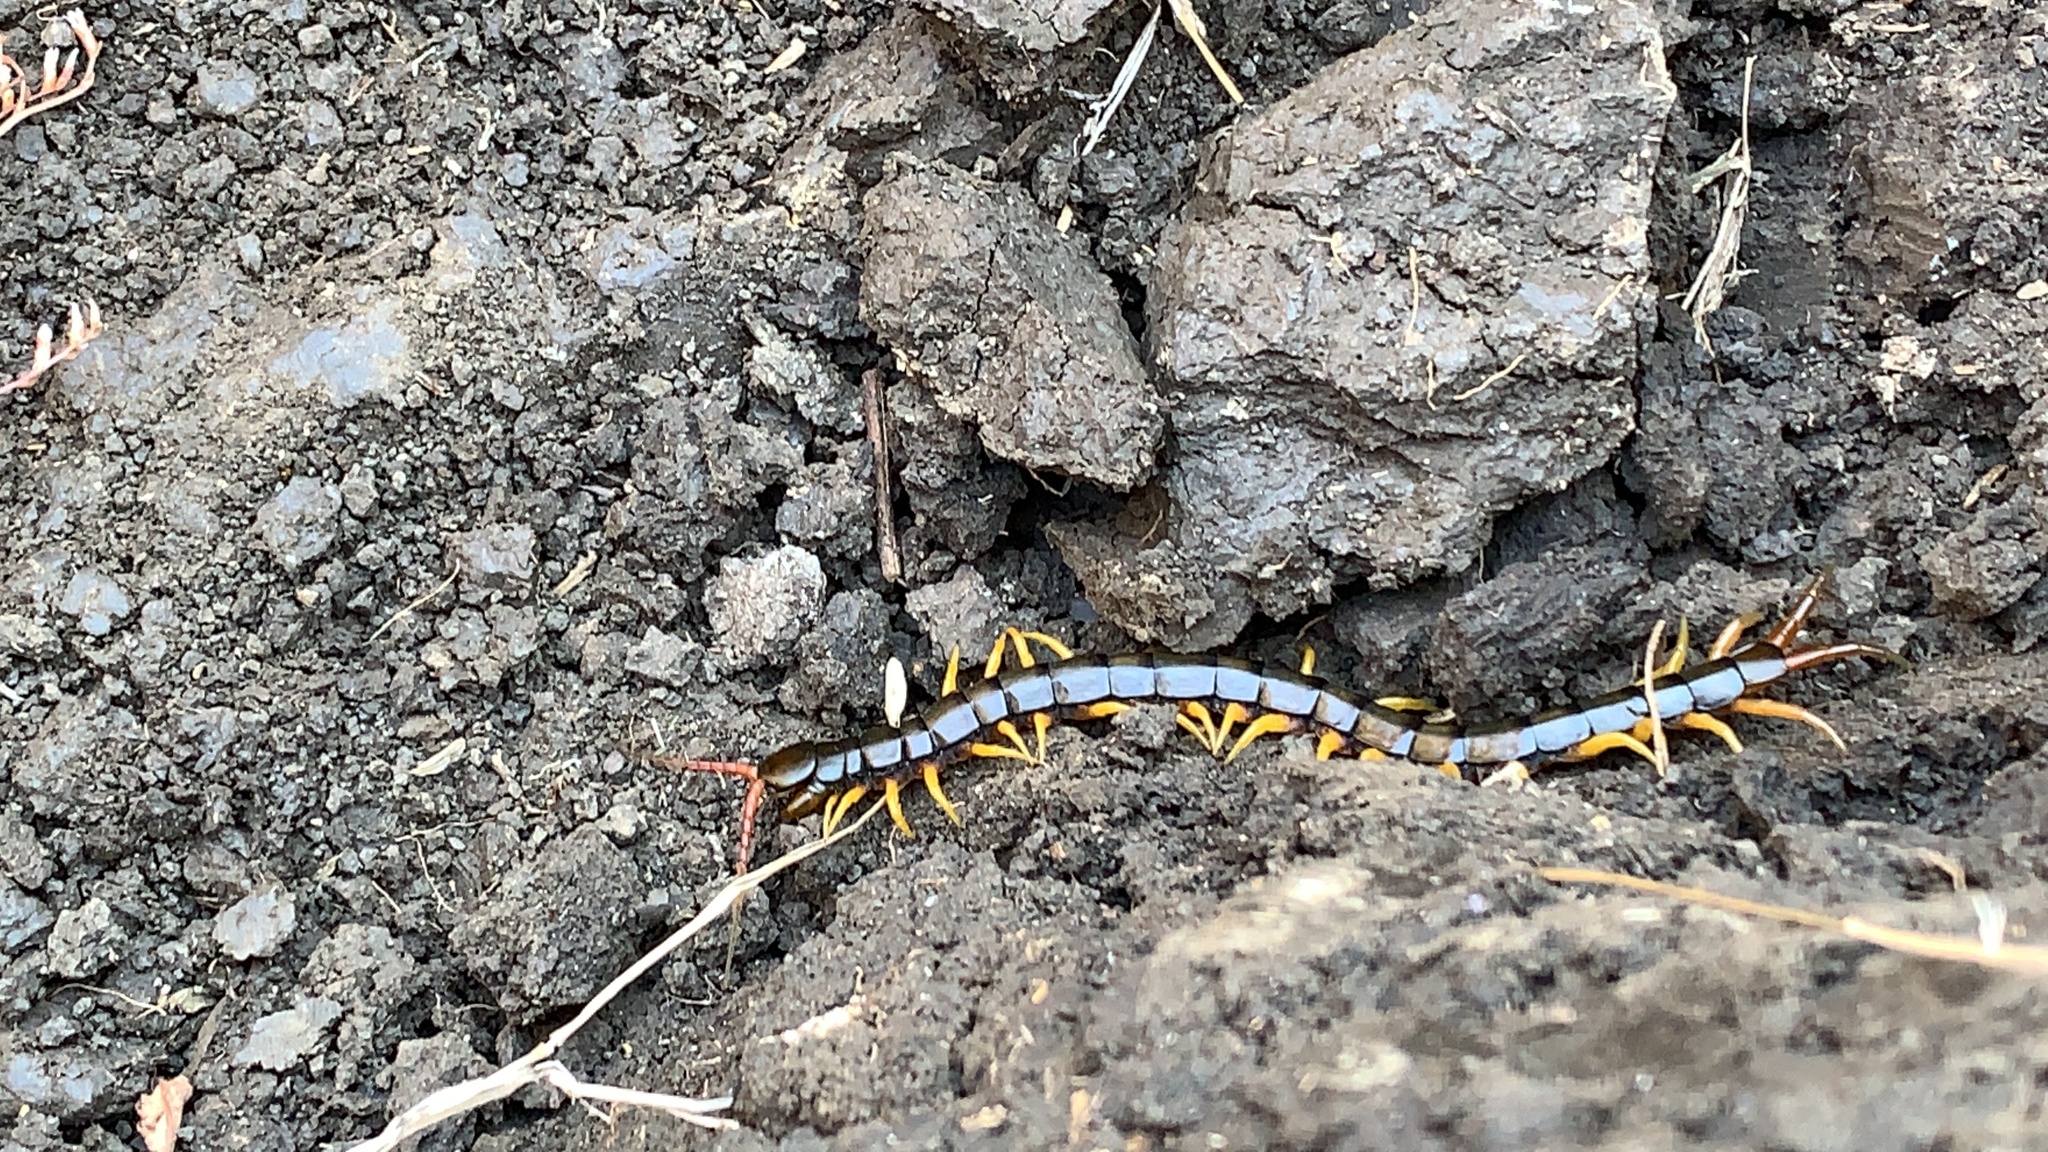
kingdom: Animalia
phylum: Arthropoda
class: Chilopoda
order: Scolopendromorpha
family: Scolopendridae
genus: Scolopendra
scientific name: Scolopendra cingulata
